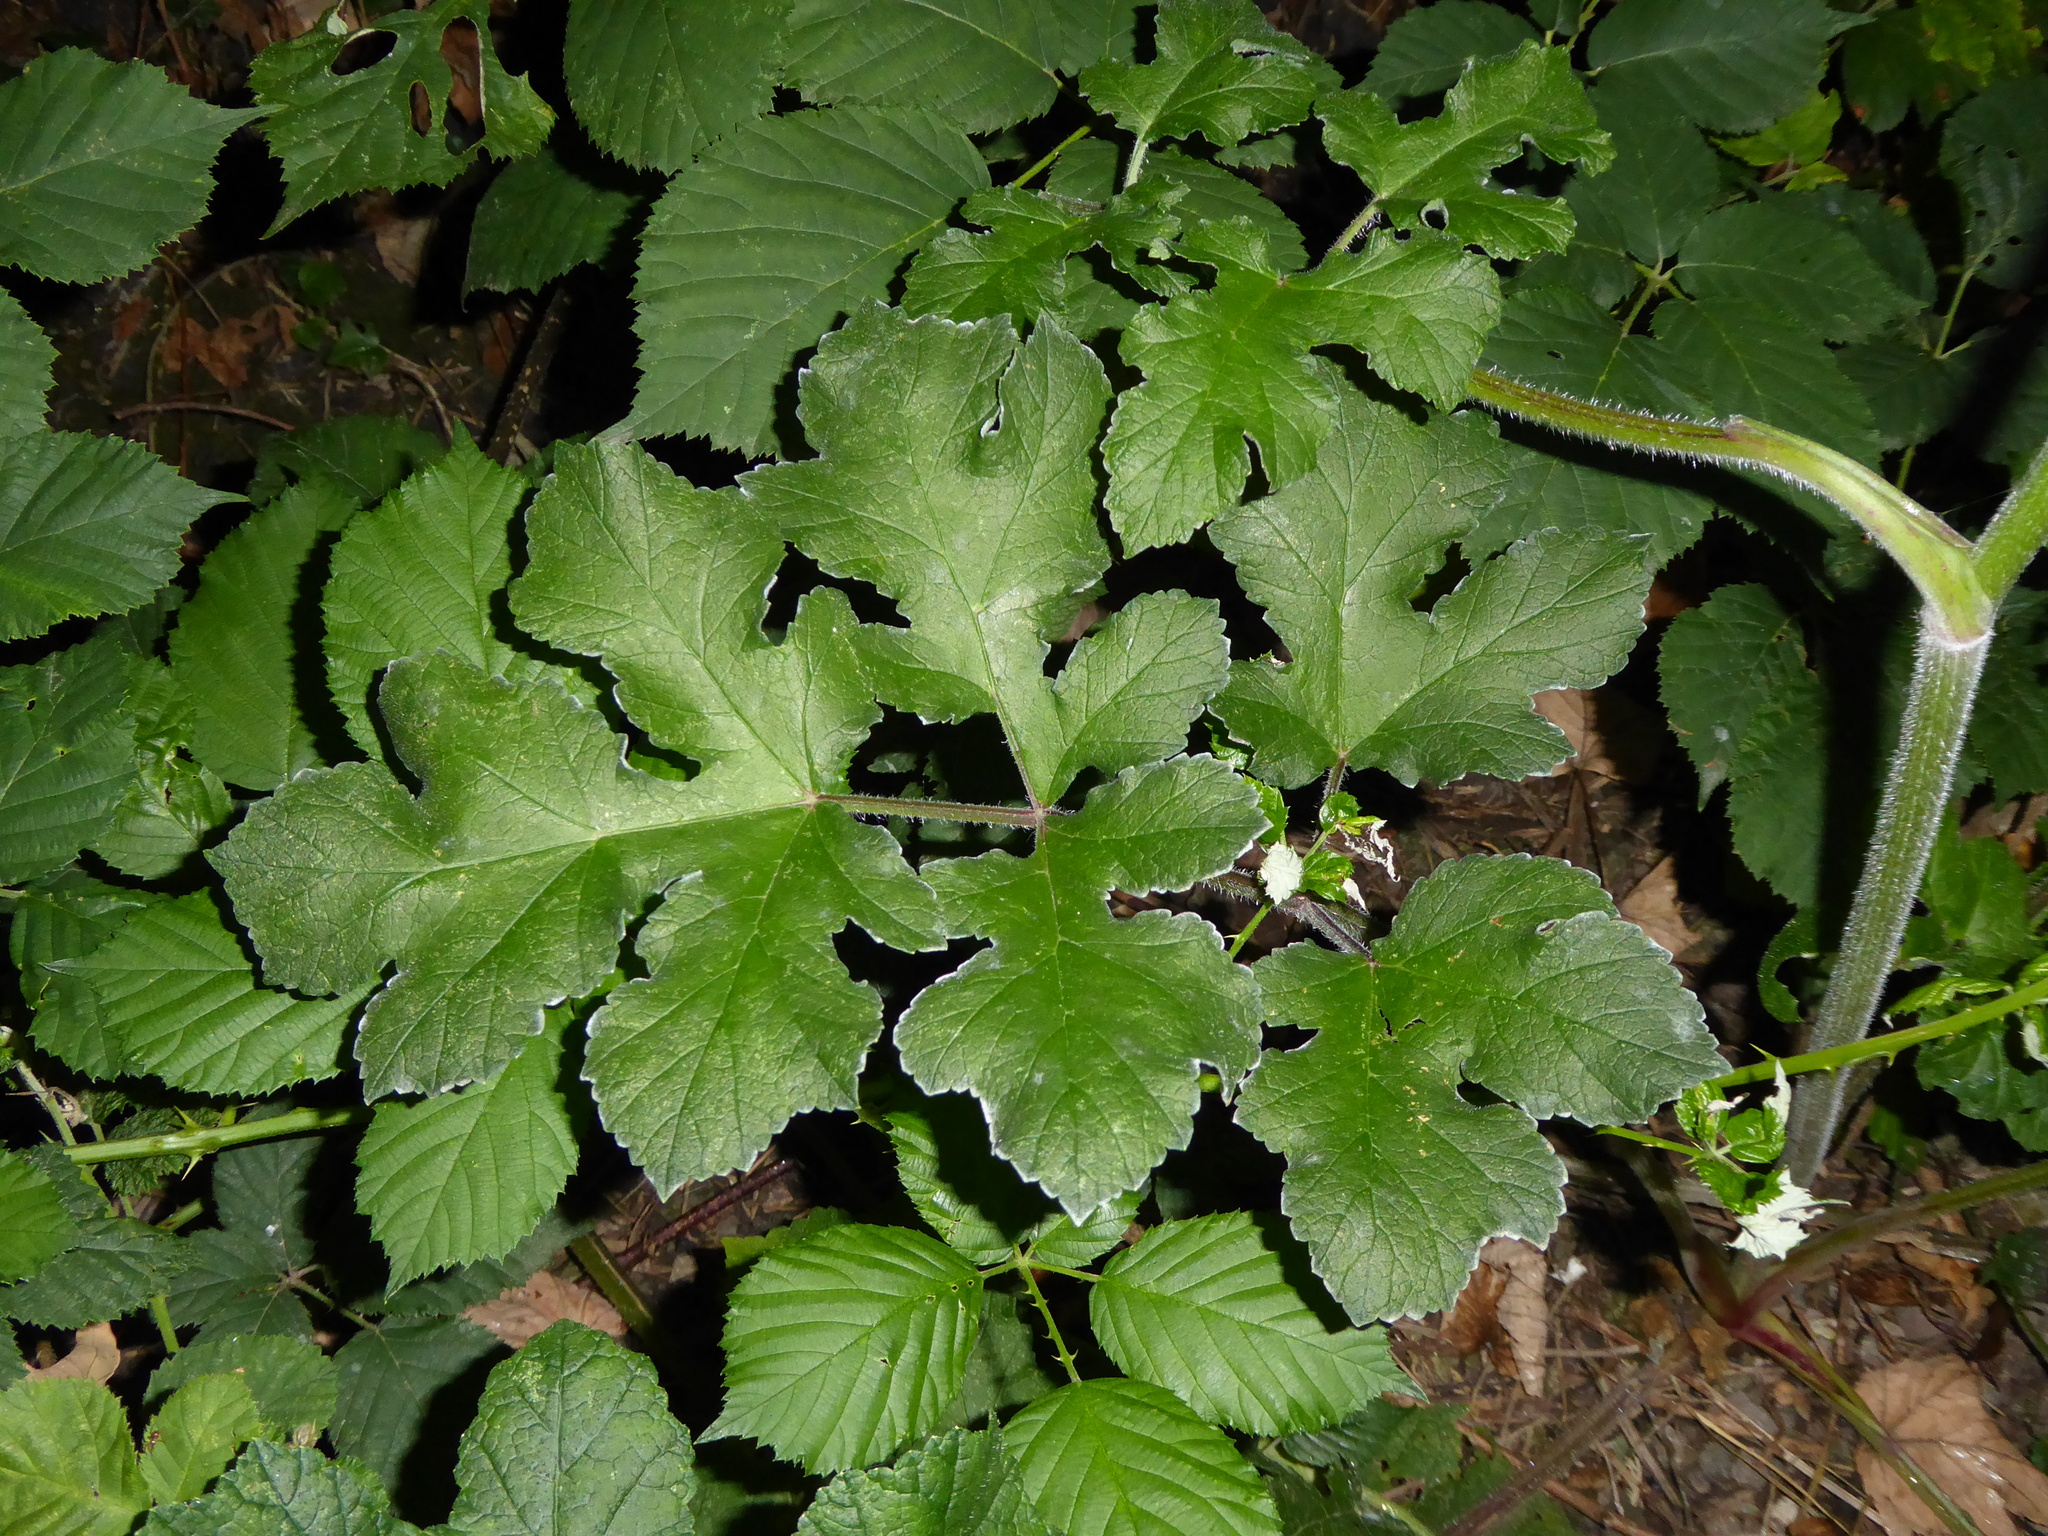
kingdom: Plantae
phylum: Tracheophyta
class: Magnoliopsida
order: Apiales
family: Apiaceae
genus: Heracleum
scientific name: Heracleum sphondylium
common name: Hogweed
